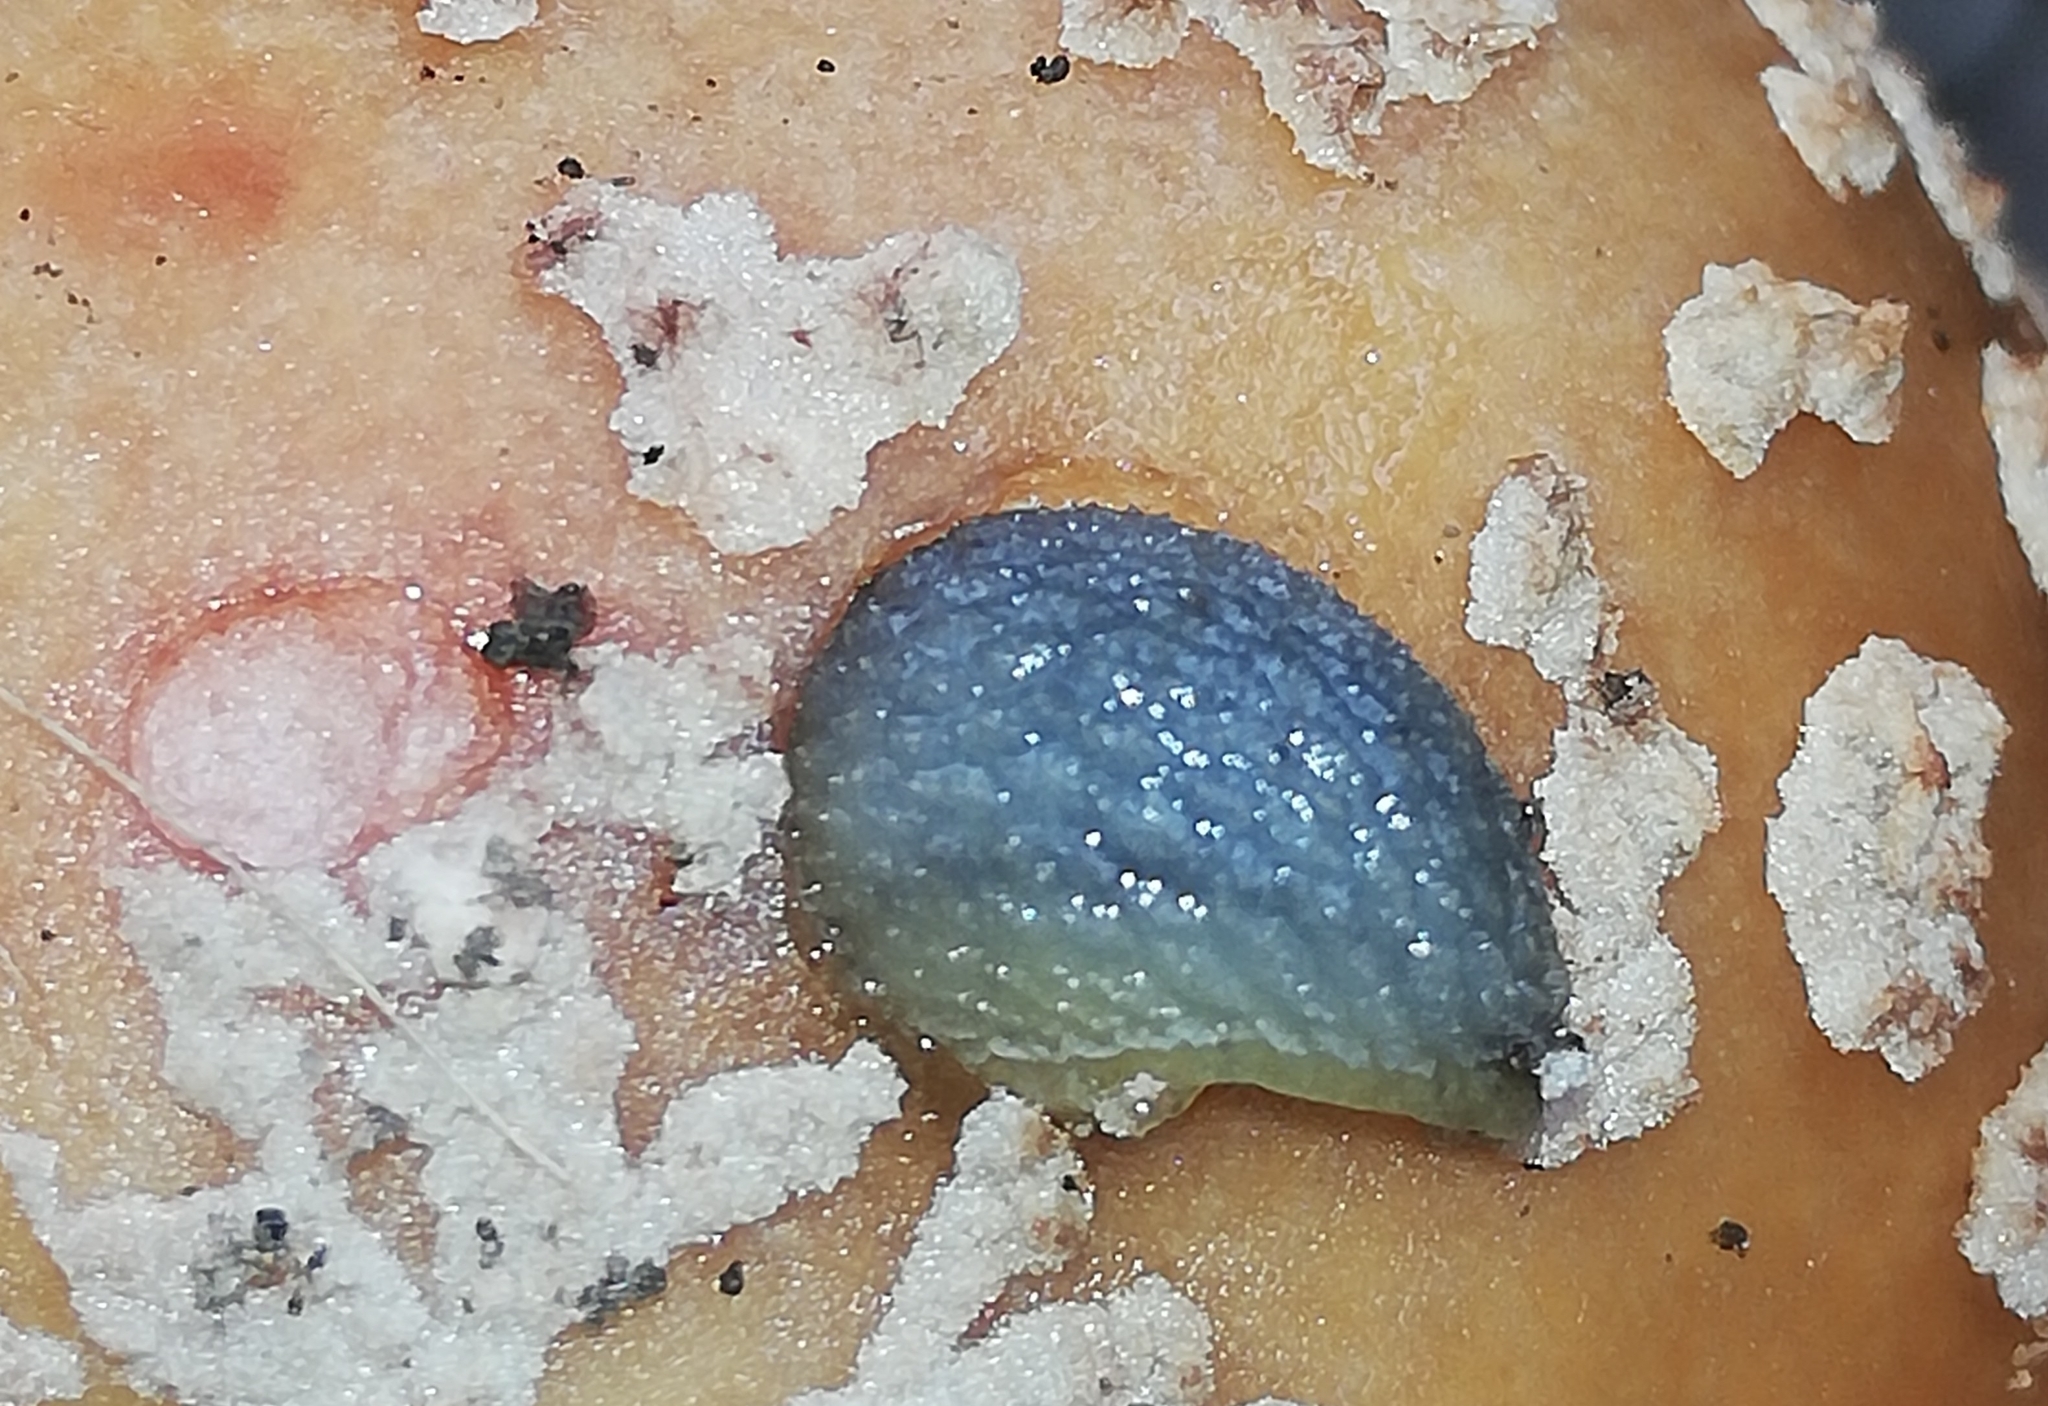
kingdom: Animalia
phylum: Mollusca
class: Gastropoda
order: Stylommatophora
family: Arionidae
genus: Arion
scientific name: Arion intermedius
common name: Hedgehog slug
